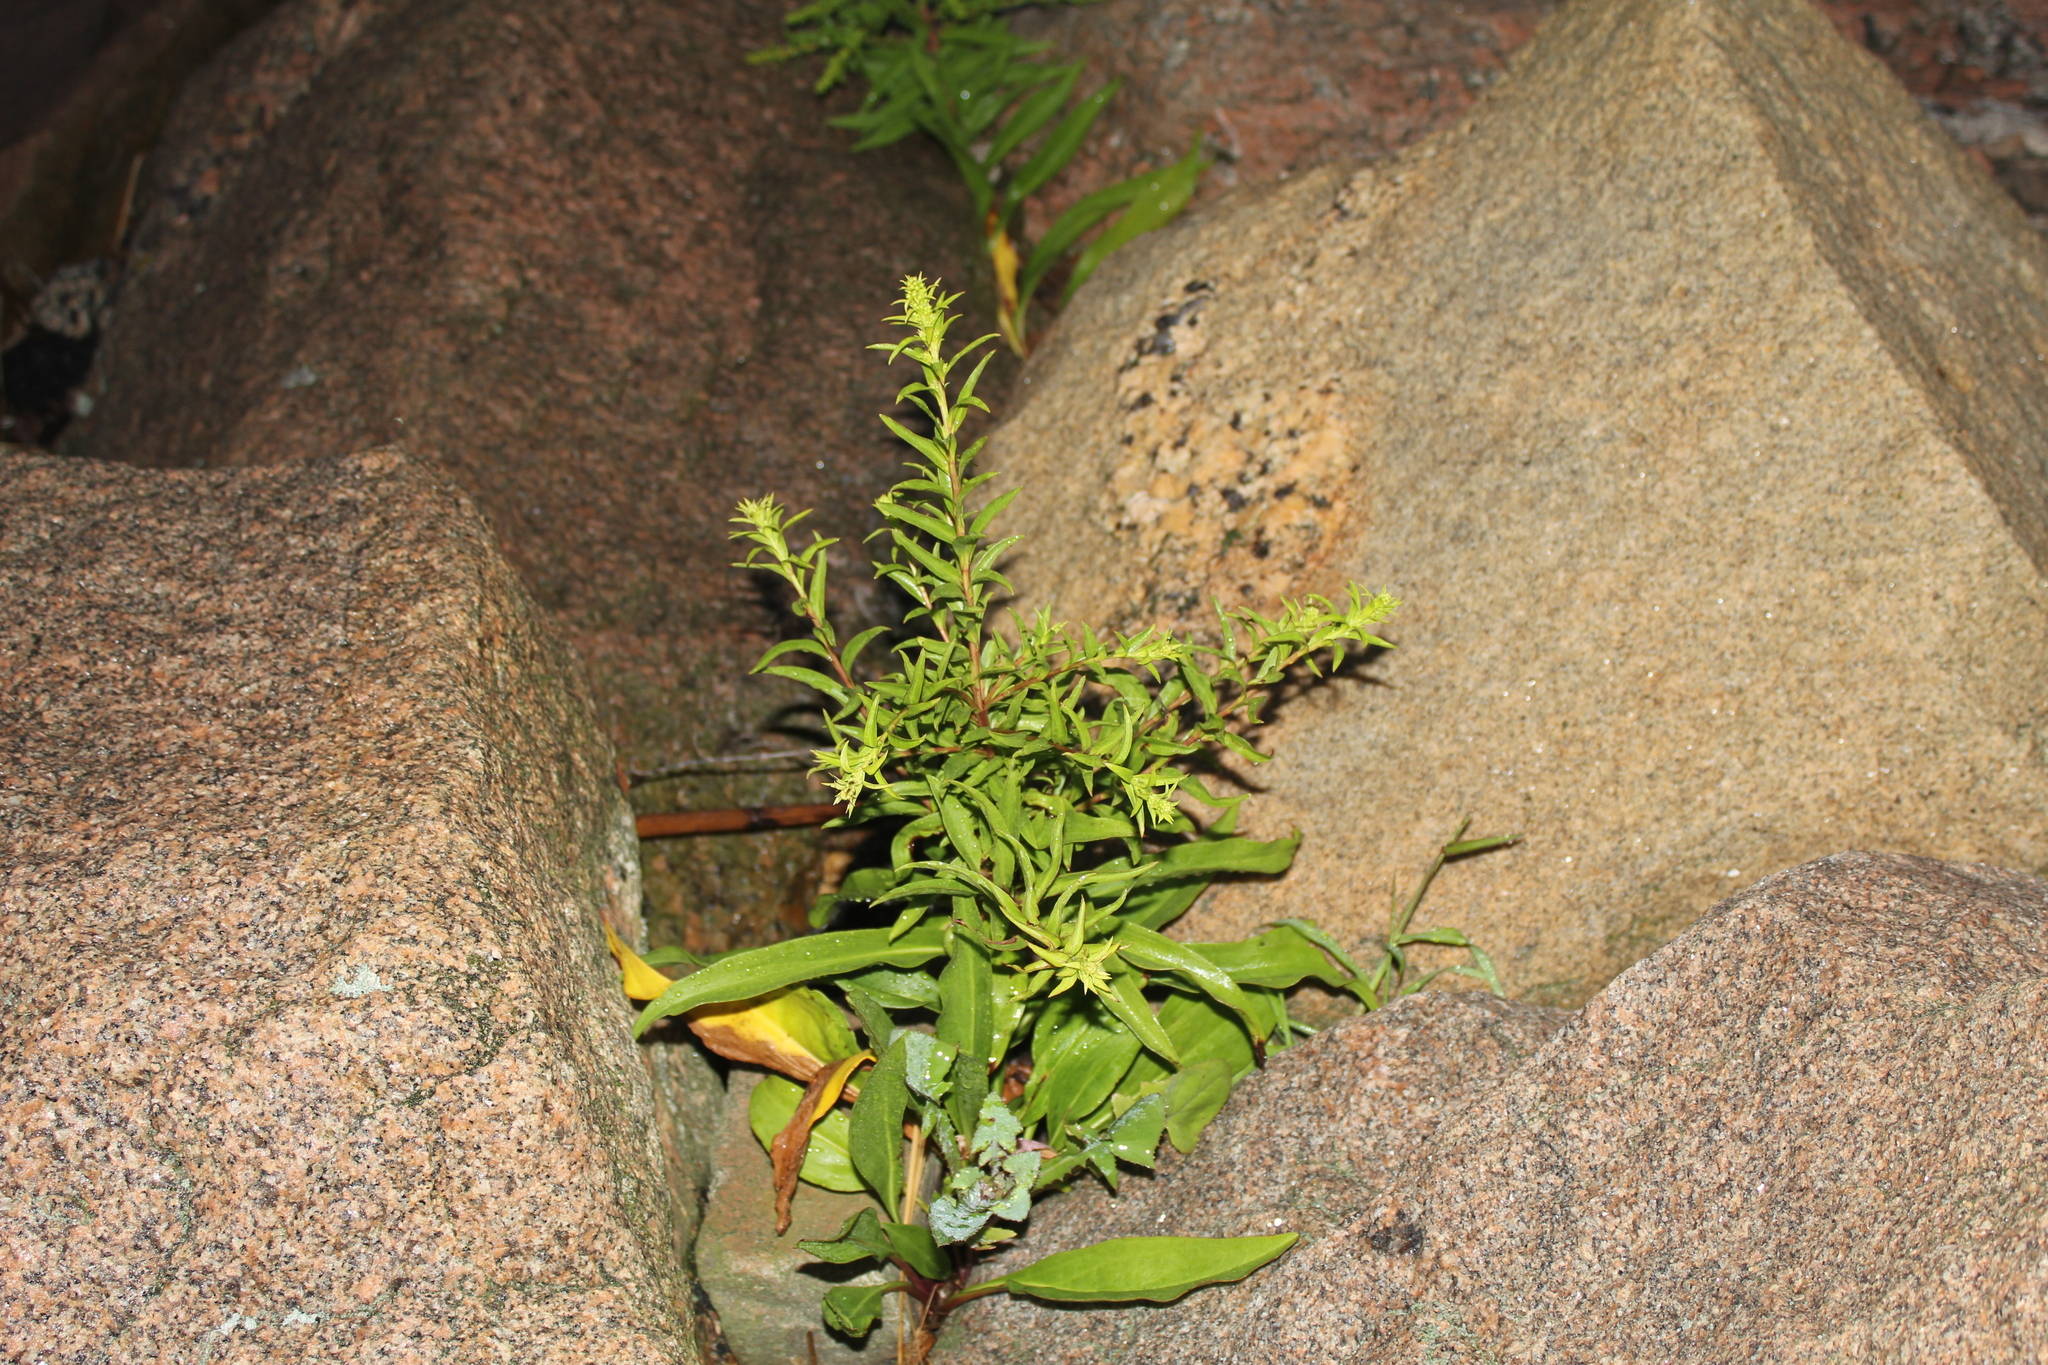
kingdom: Plantae
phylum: Tracheophyta
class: Magnoliopsida
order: Asterales
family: Asteraceae
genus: Solidago
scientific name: Solidago sempervirens
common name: Salt-marsh goldenrod
